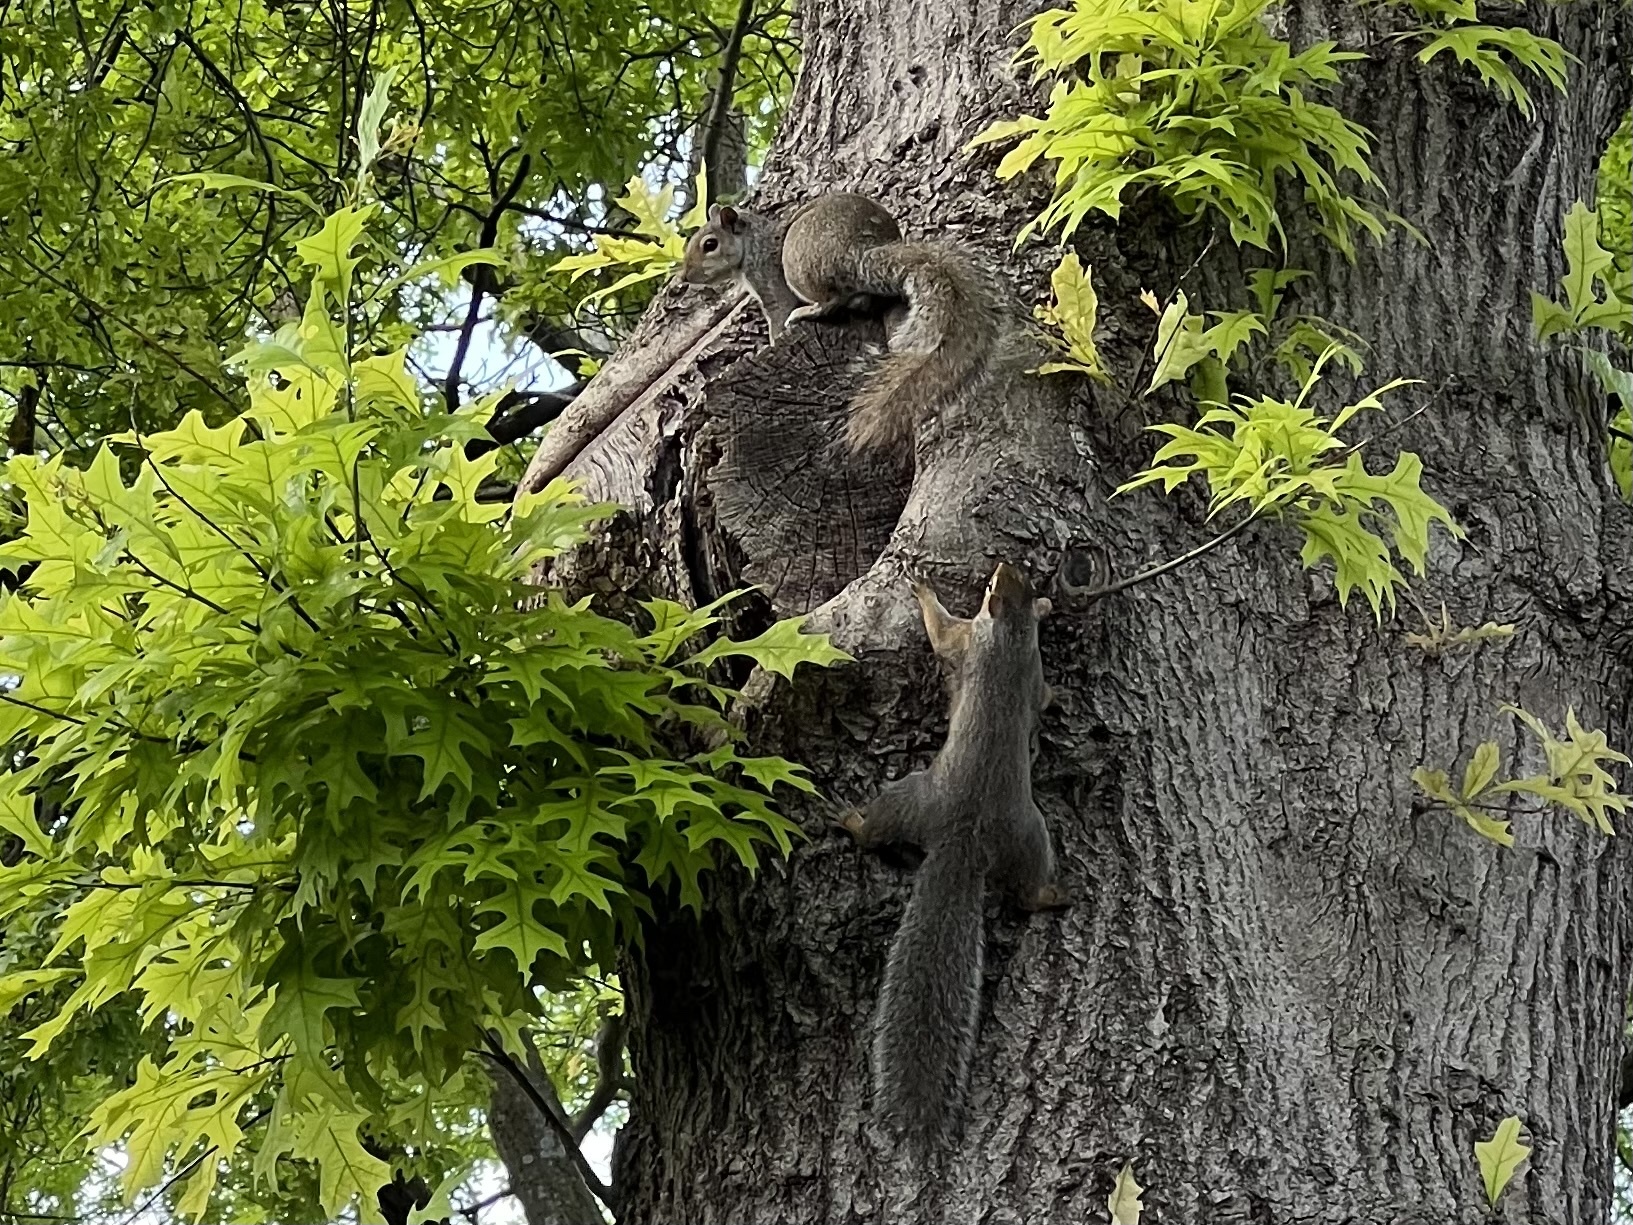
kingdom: Animalia
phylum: Chordata
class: Mammalia
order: Rodentia
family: Sciuridae
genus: Sciurus
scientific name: Sciurus carolinensis
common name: Eastern gray squirrel
